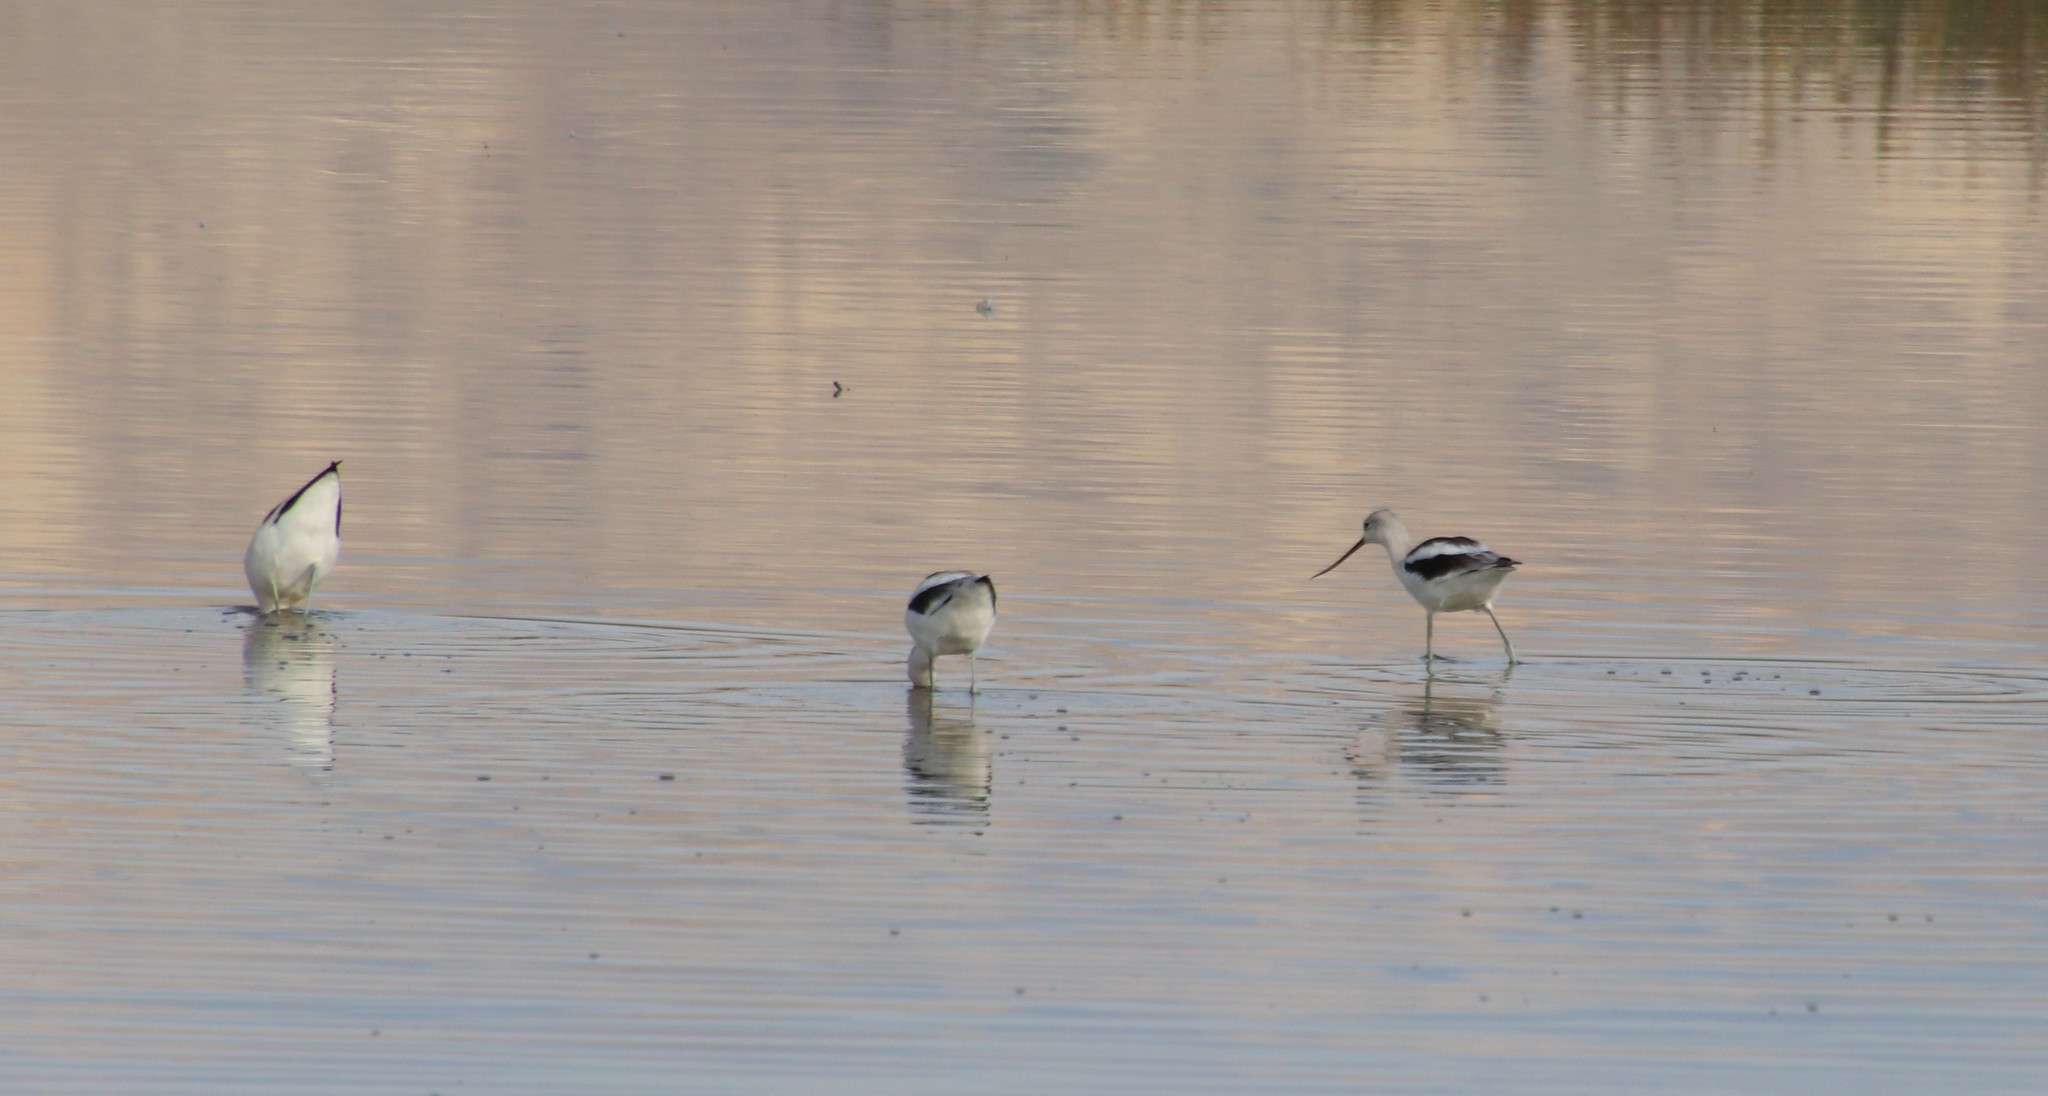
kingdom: Animalia
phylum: Chordata
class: Aves
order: Charadriiformes
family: Recurvirostridae
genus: Recurvirostra
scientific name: Recurvirostra americana
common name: American avocet
